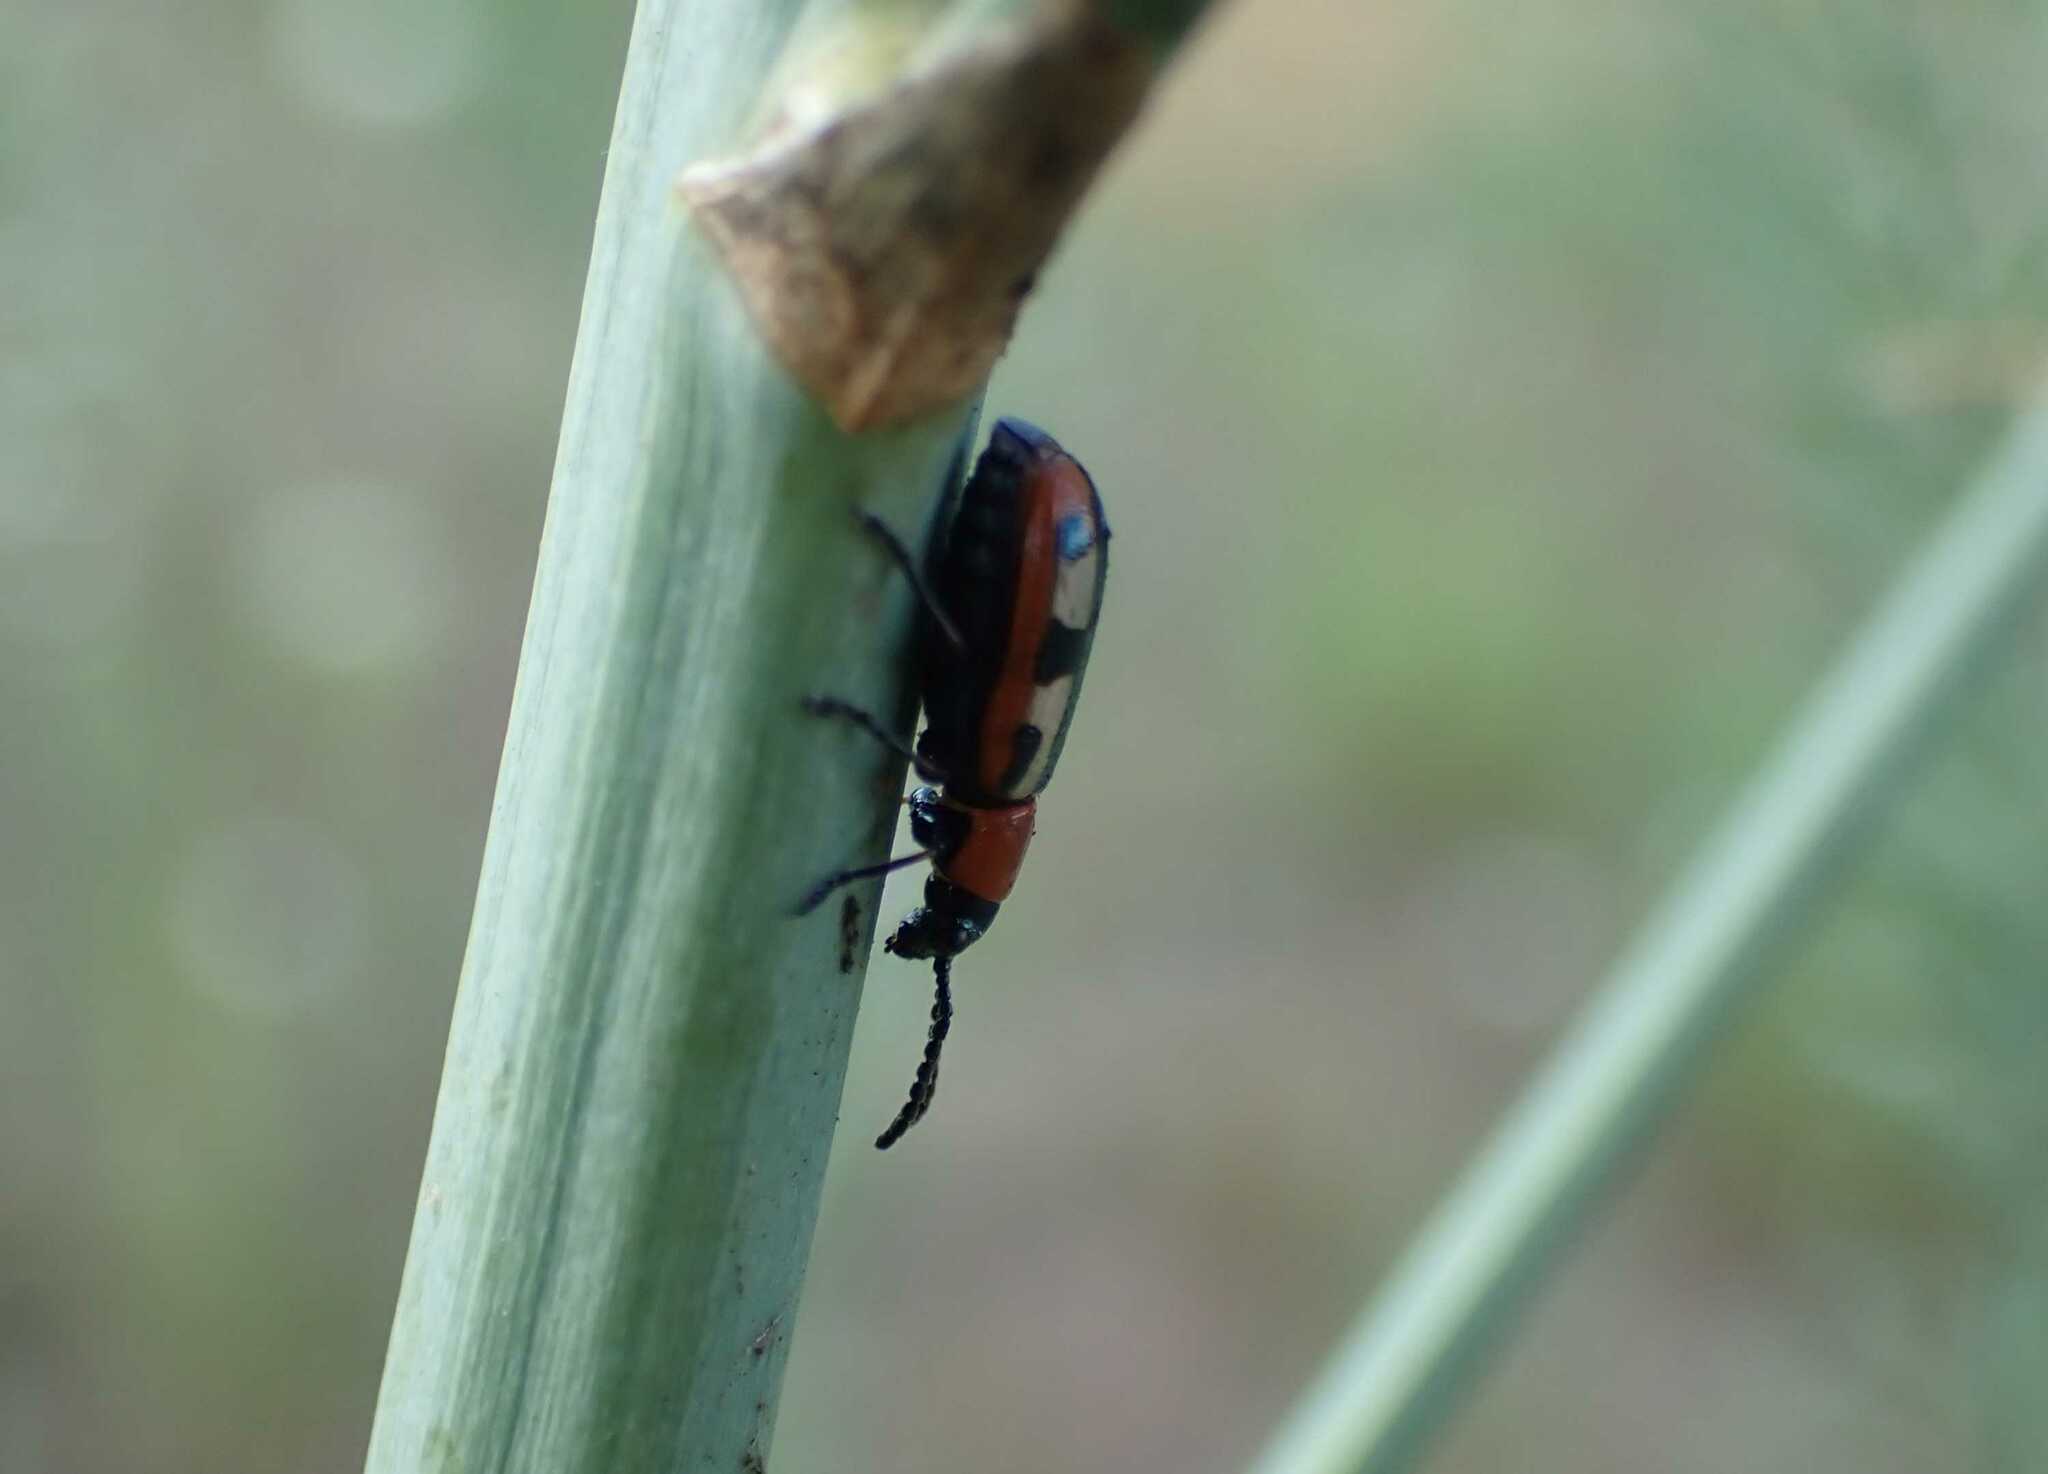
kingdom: Animalia
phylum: Arthropoda
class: Insecta
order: Coleoptera
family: Chrysomelidae
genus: Crioceris
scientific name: Crioceris asparagi
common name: Asparagus beetle
